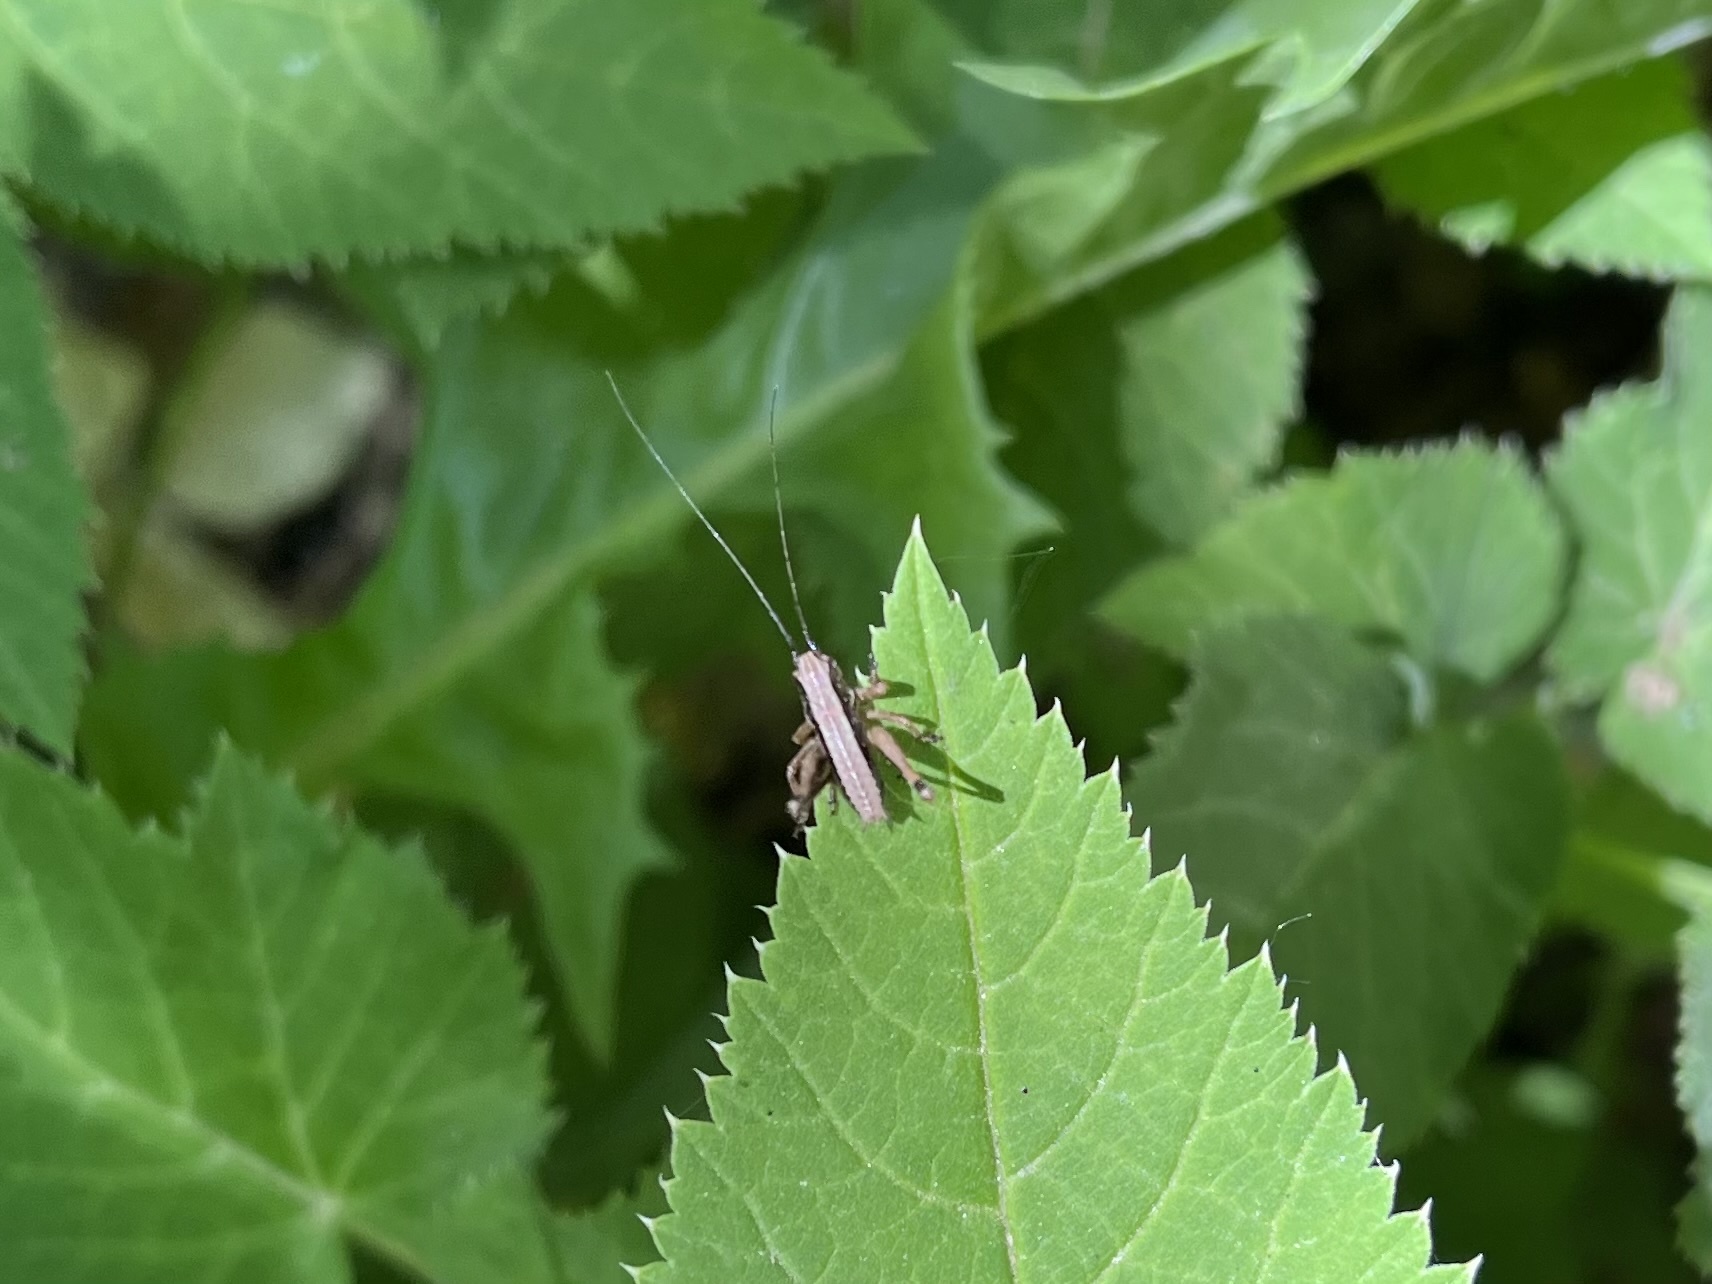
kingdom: Animalia
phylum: Arthropoda
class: Insecta
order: Orthoptera
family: Tettigoniidae
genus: Pholidoptera
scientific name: Pholidoptera griseoaptera
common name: Dark bush-cricket
